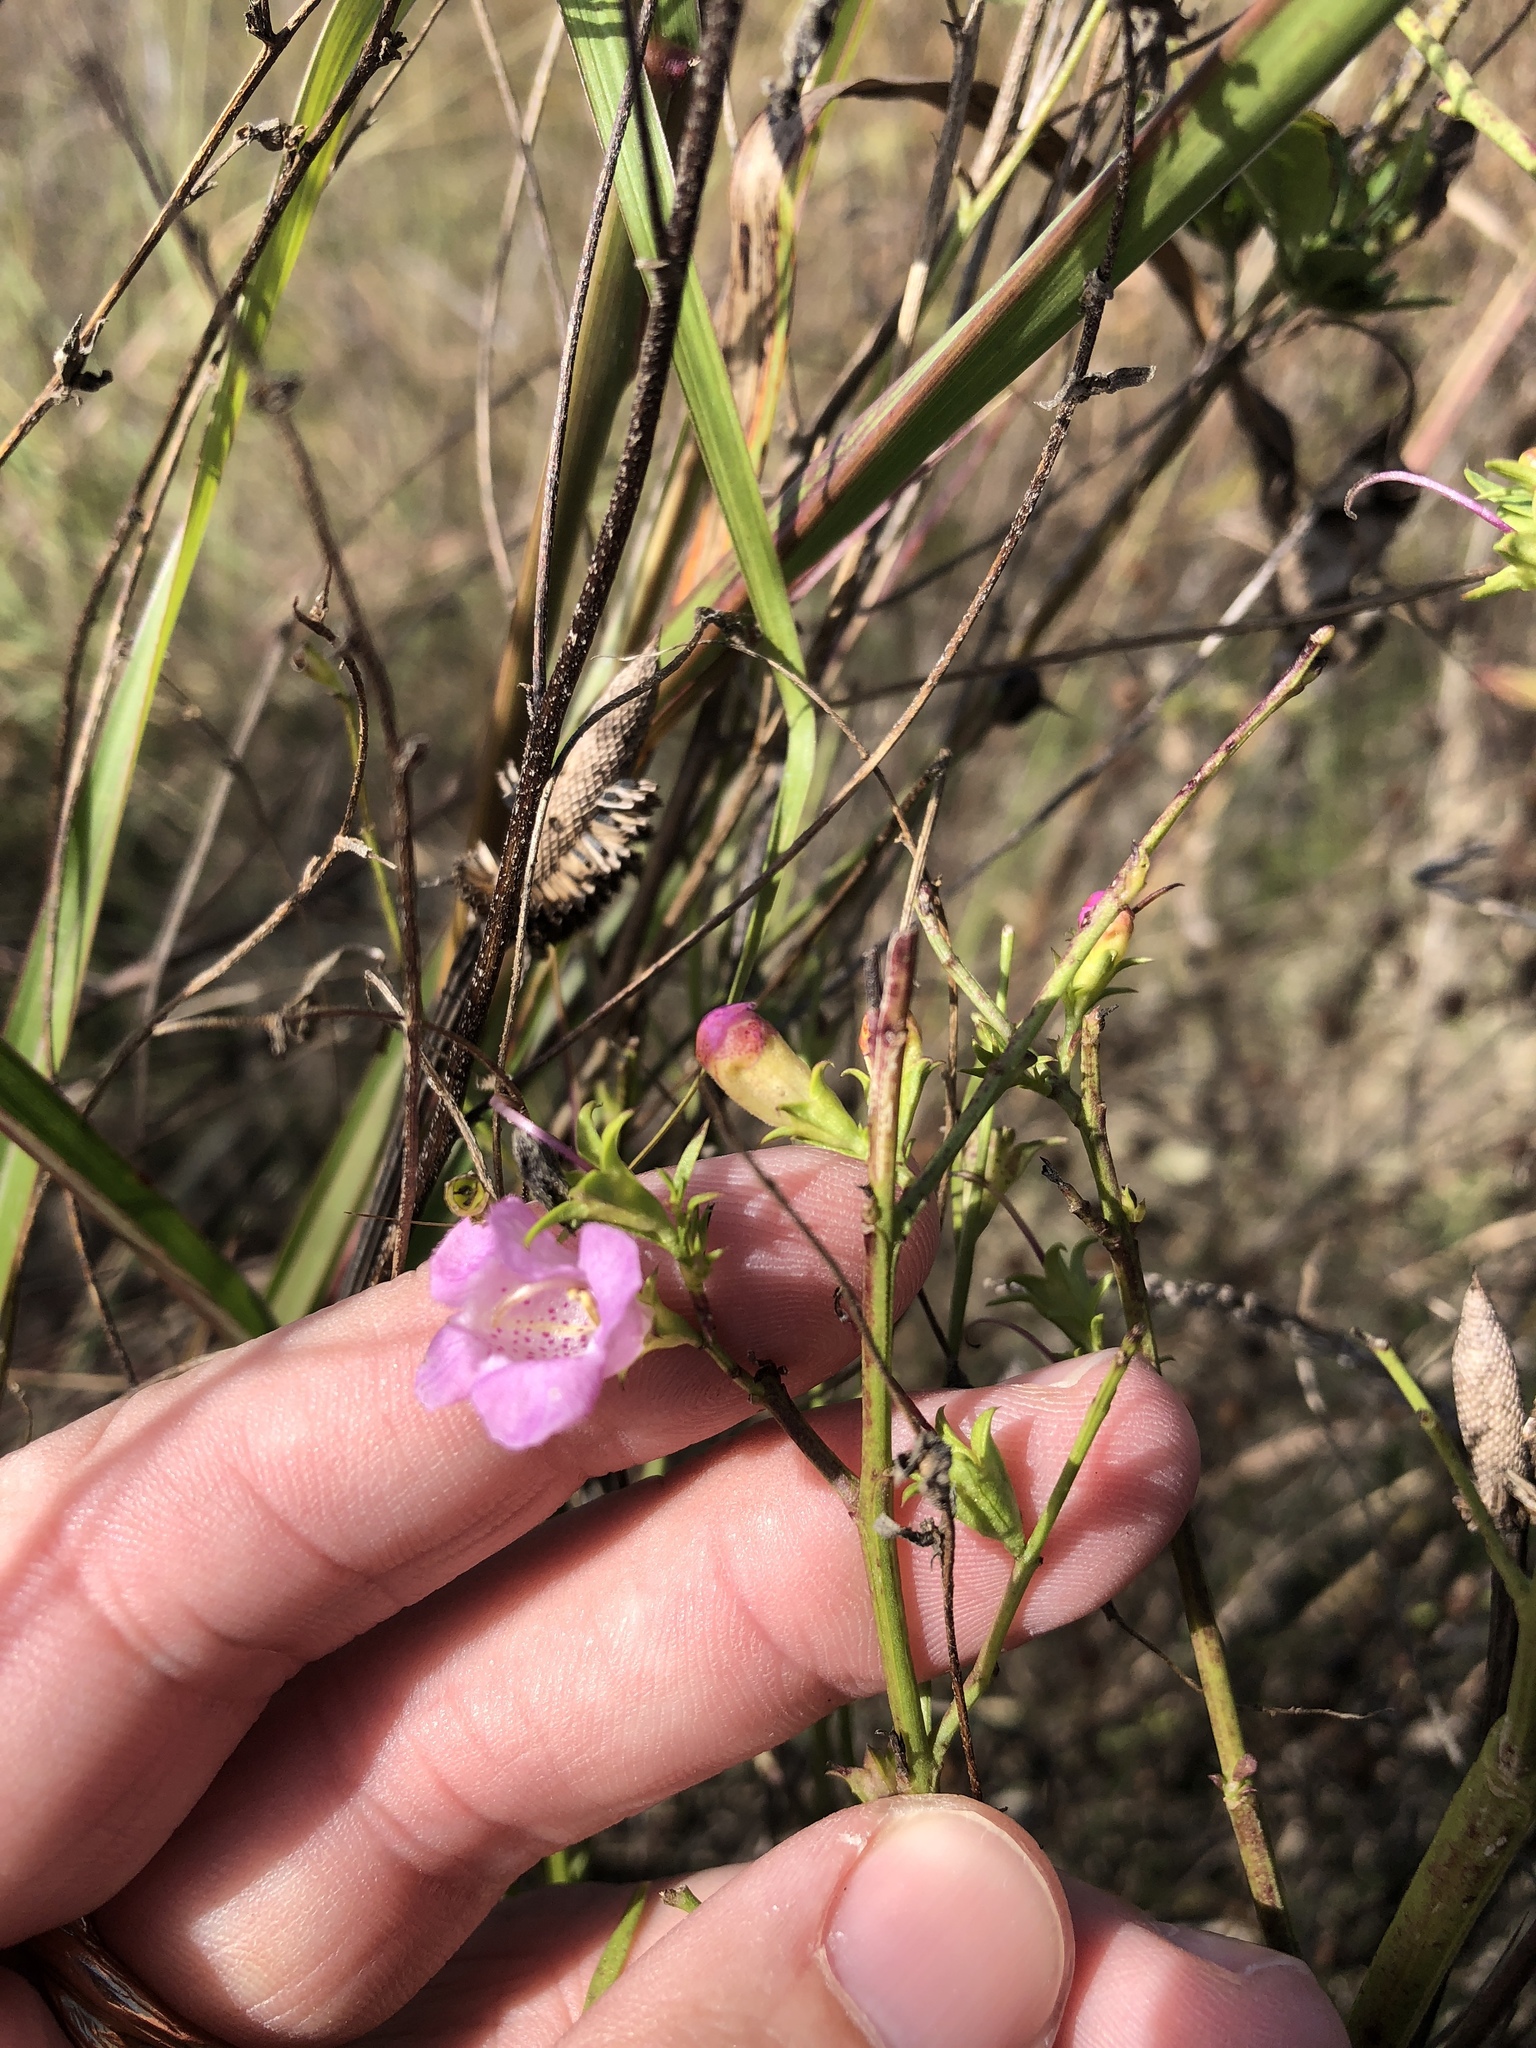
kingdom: Plantae
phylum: Tracheophyta
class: Magnoliopsida
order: Lamiales
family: Orobanchaceae
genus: Agalinis
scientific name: Agalinis heterophylla
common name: Prairie agalinis
